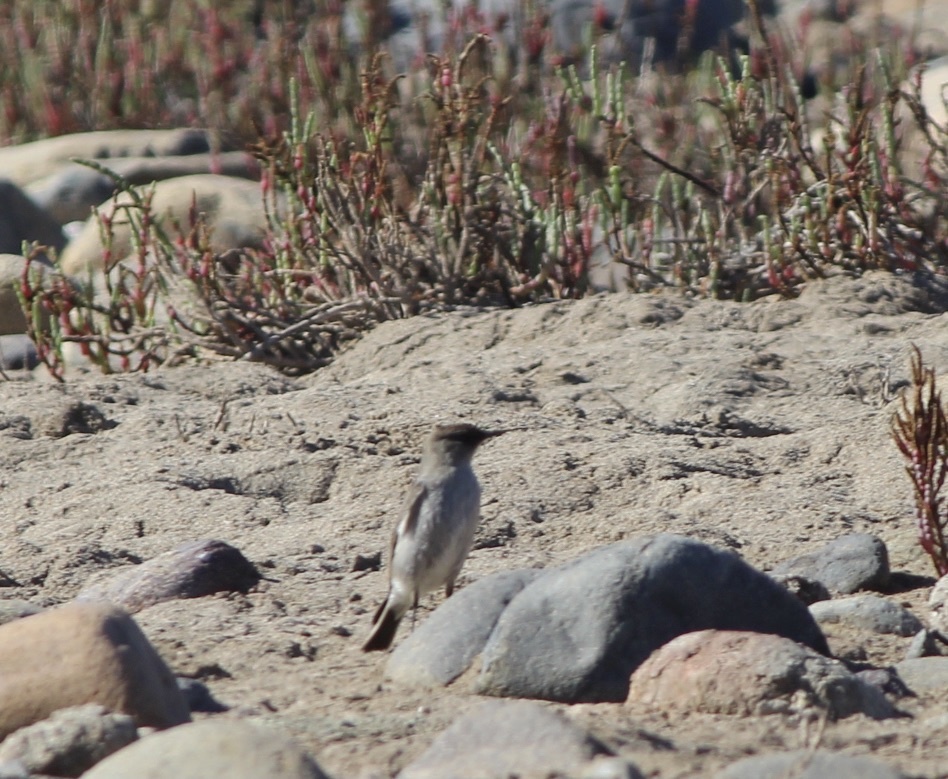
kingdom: Animalia
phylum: Chordata
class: Aves
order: Passeriformes
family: Tyrannidae
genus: Muscisaxicola
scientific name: Muscisaxicola maclovianus
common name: Dark-faced ground tyrant
